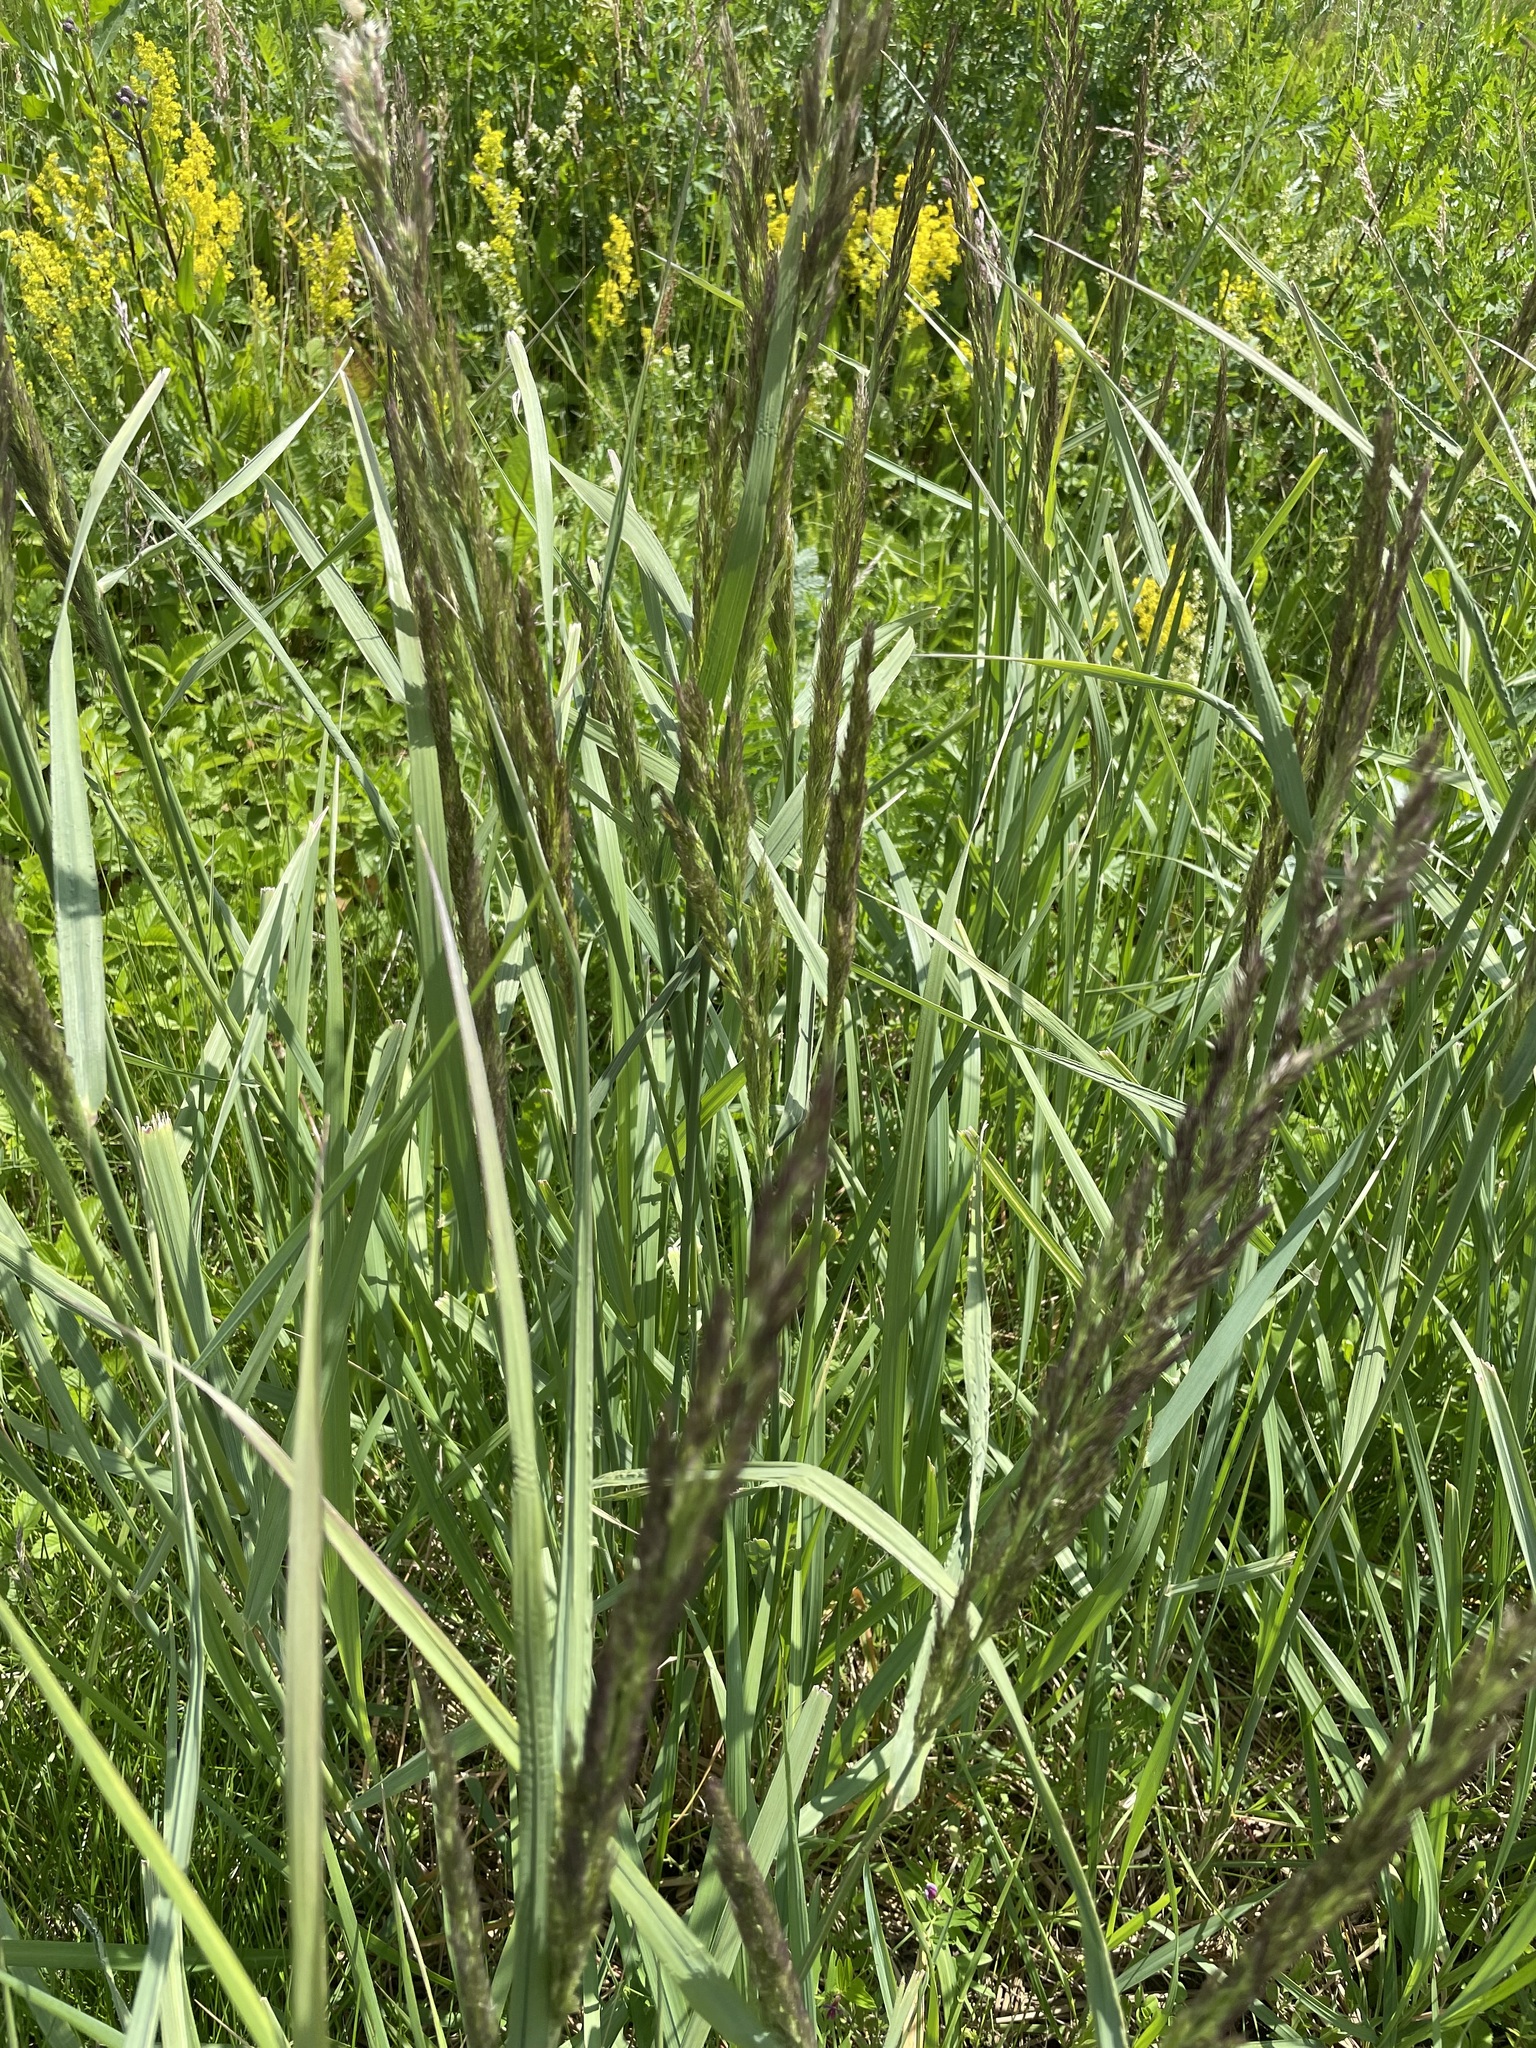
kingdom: Plantae
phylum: Tracheophyta
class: Liliopsida
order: Poales
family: Poaceae
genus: Calamagrostis
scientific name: Calamagrostis epigejos
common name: Wood small-reed
